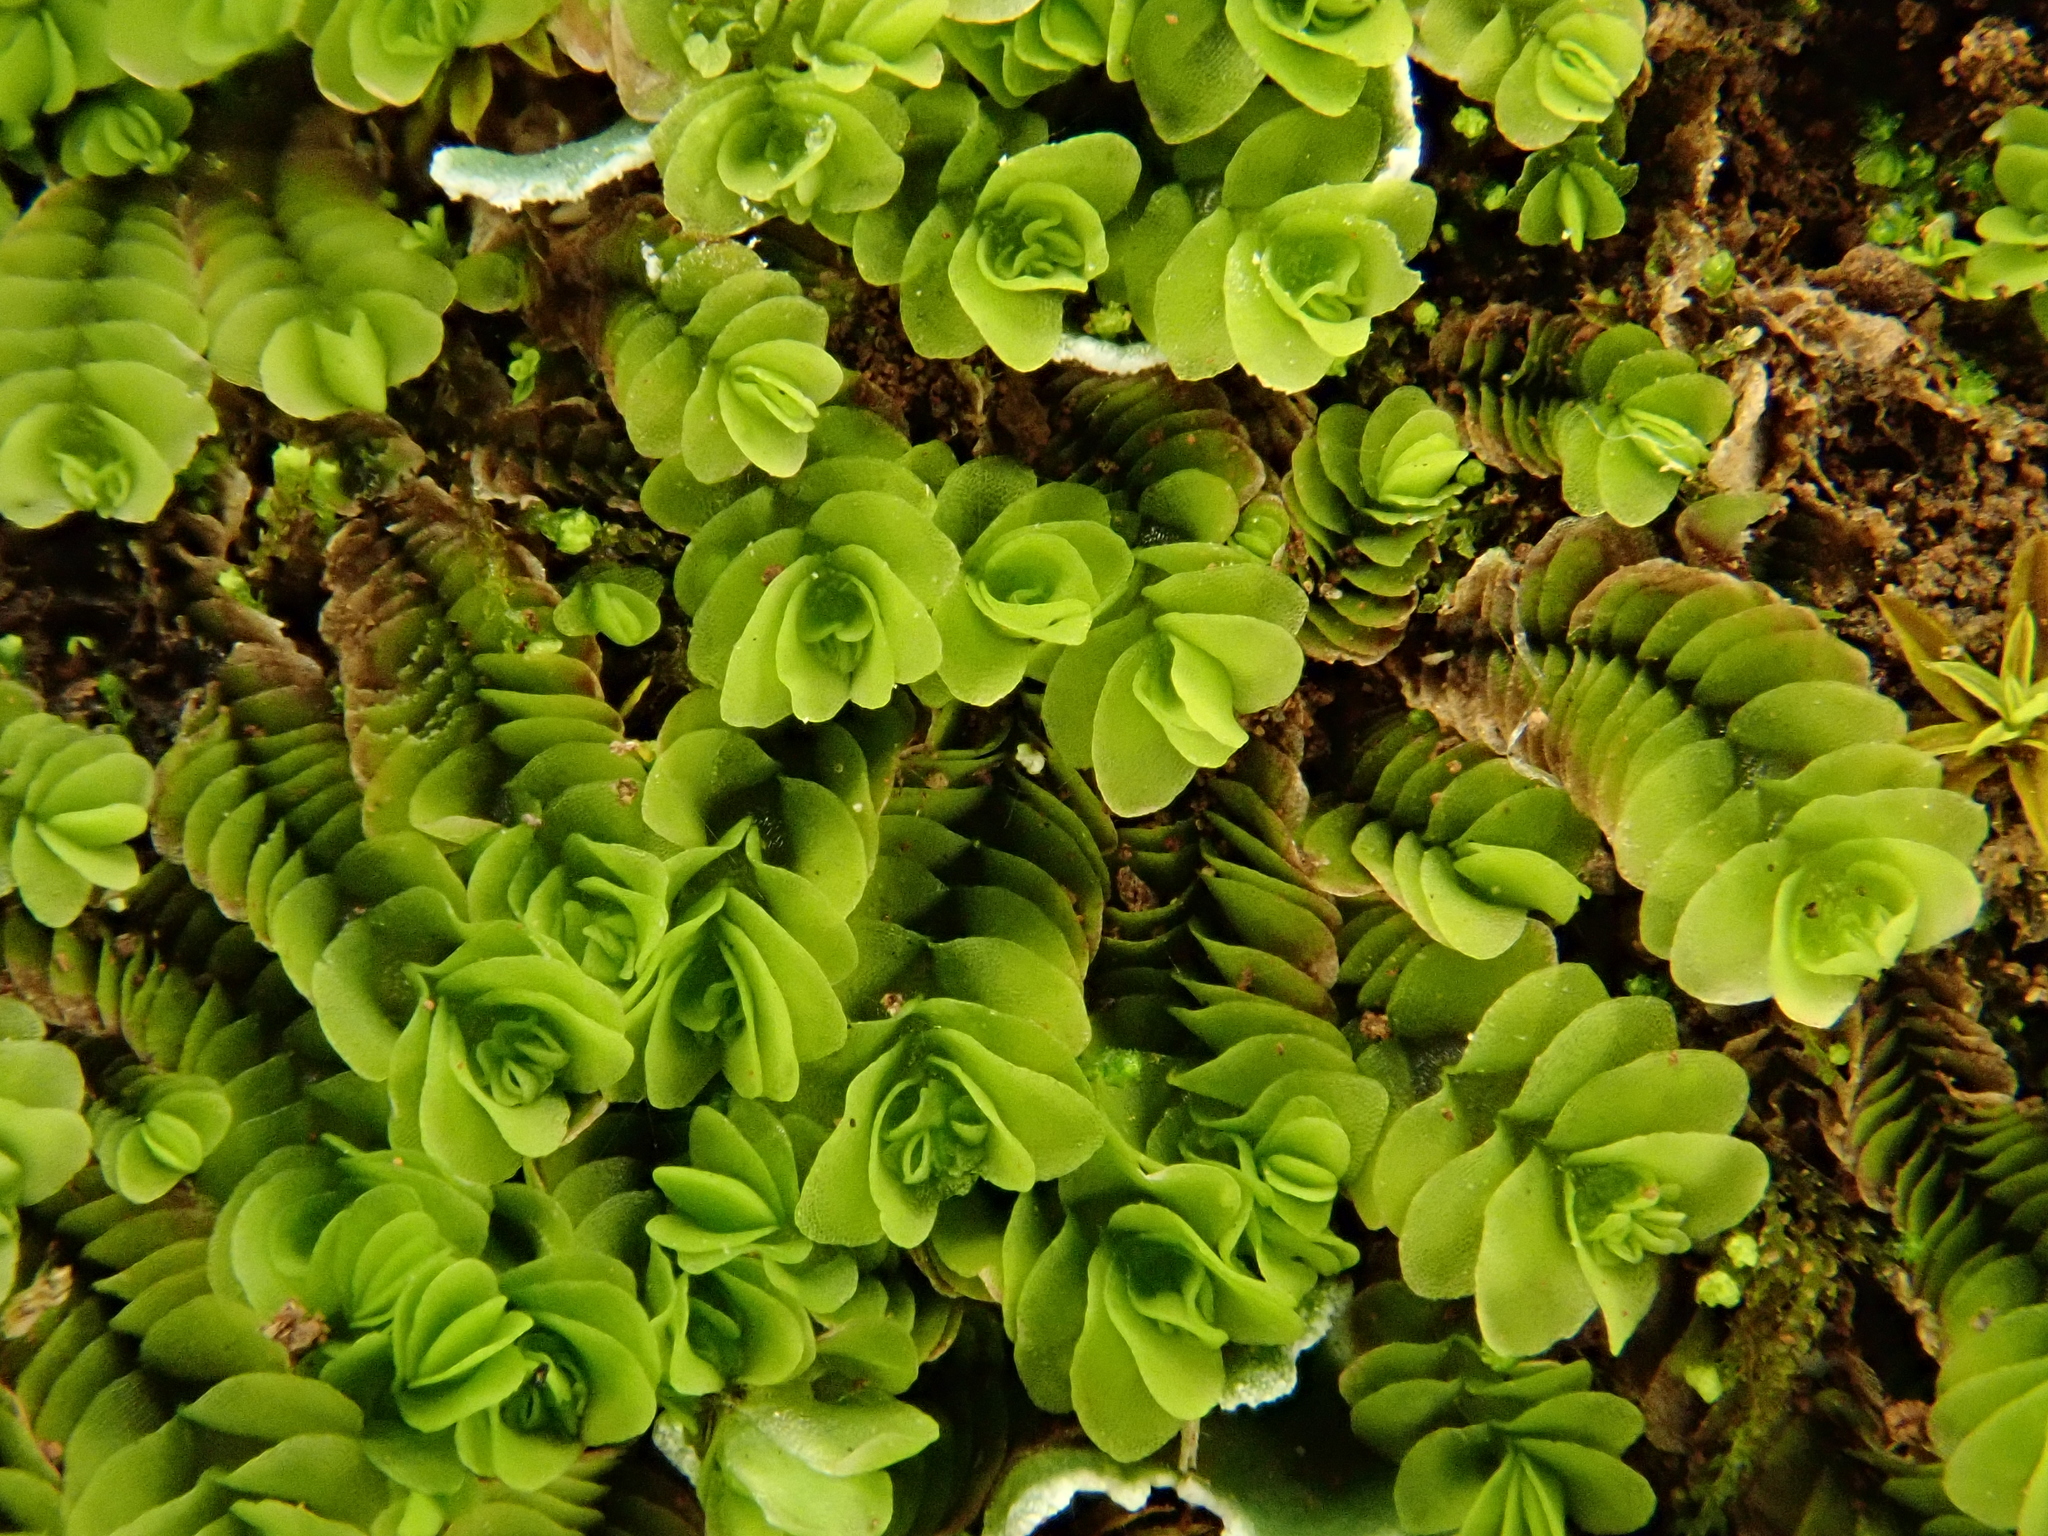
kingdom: Plantae
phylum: Marchantiophyta
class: Jungermanniopsida
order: Jungermanniales
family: Southbyaceae
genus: Gongylanthus
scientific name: Gongylanthus ericetorum
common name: Heath pouchwort
